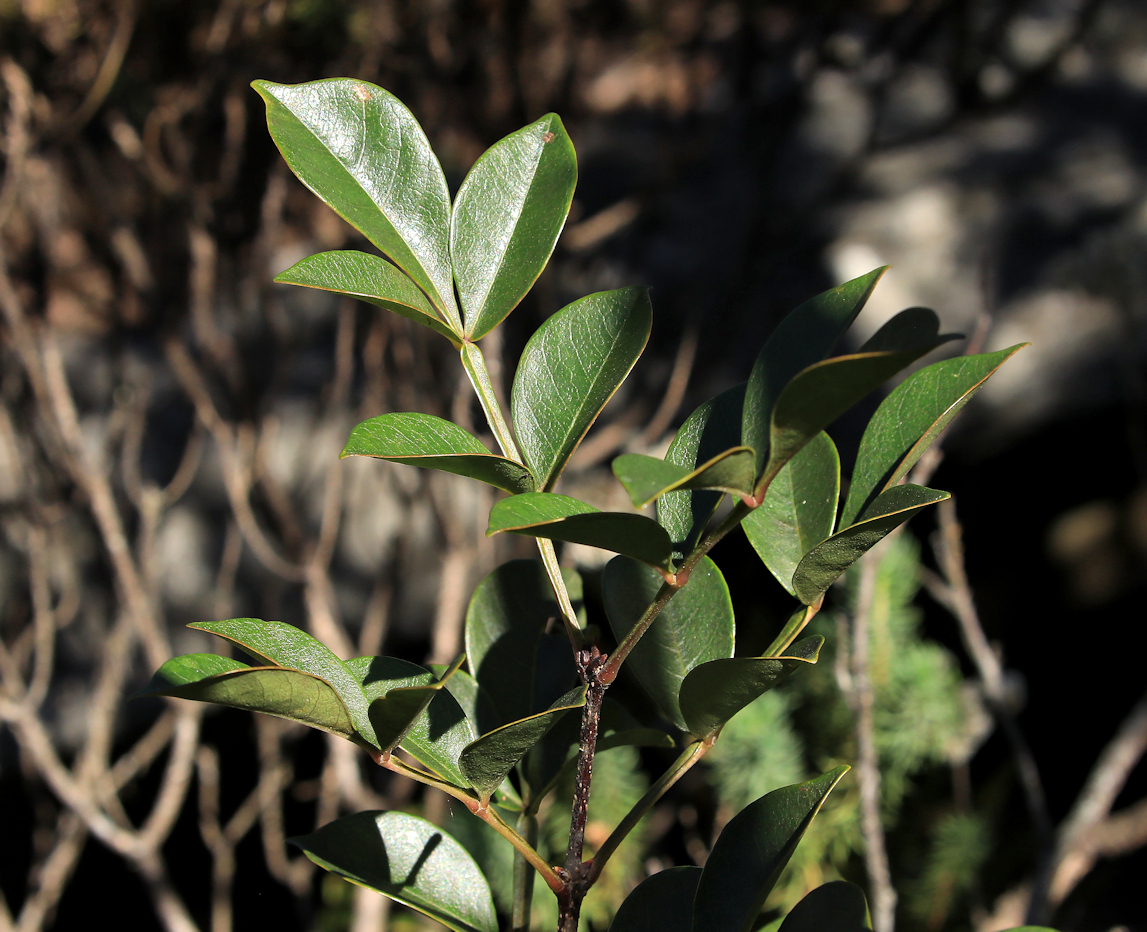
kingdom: Plantae
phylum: Tracheophyta
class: Magnoliopsida
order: Lamiales
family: Oleaceae
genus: Schrebera
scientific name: Schrebera alata
